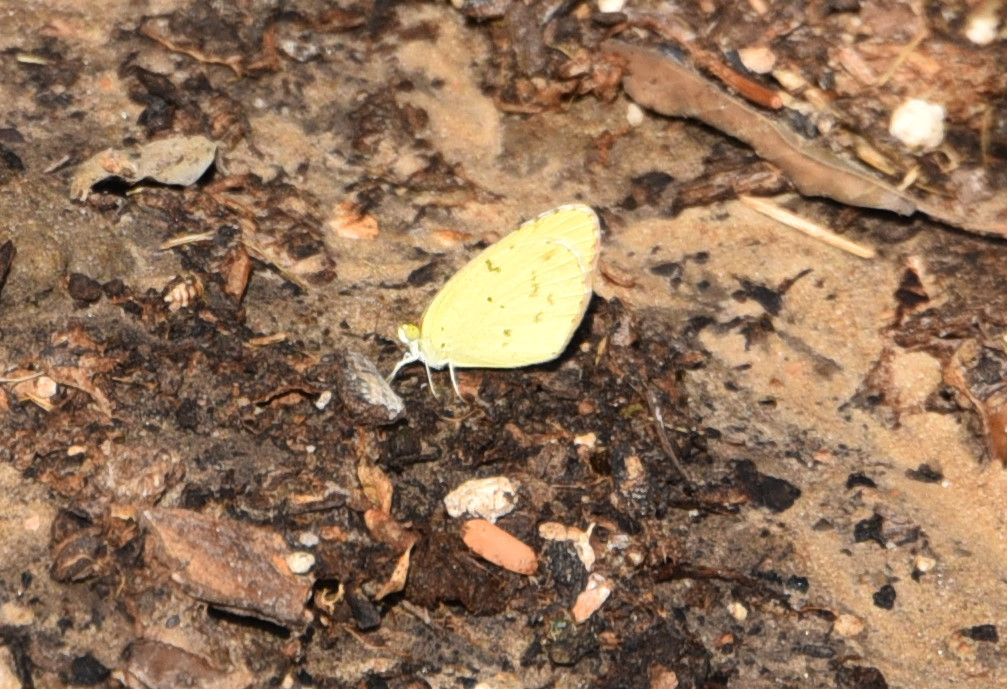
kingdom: Animalia
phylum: Arthropoda
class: Insecta
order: Lepidoptera
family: Pieridae
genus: Pyrisitia
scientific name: Pyrisitia lisa
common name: Little yellow
